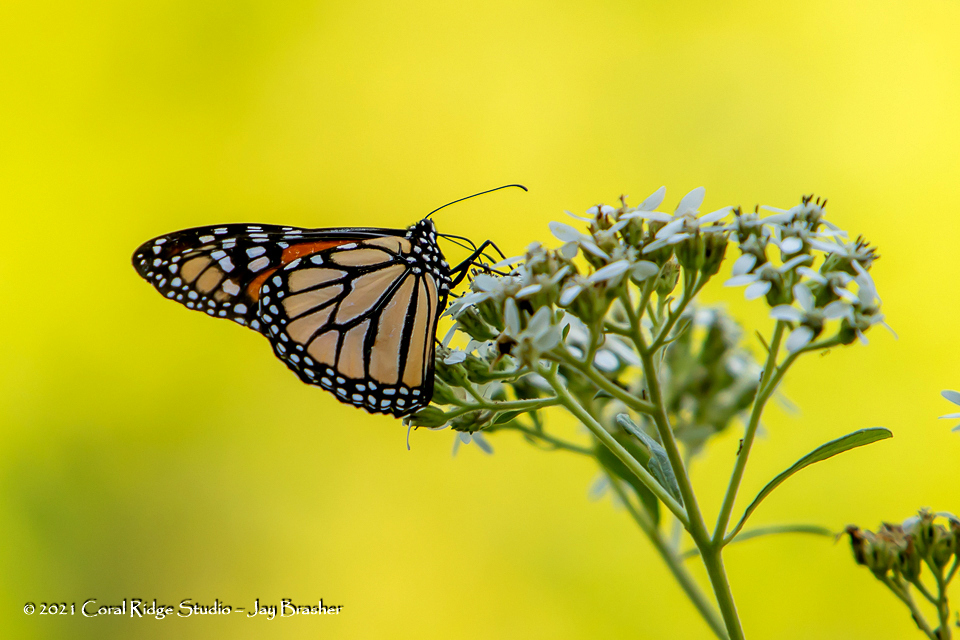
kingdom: Animalia
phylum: Arthropoda
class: Insecta
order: Lepidoptera
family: Nymphalidae
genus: Danaus
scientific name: Danaus plexippus
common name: Monarch
